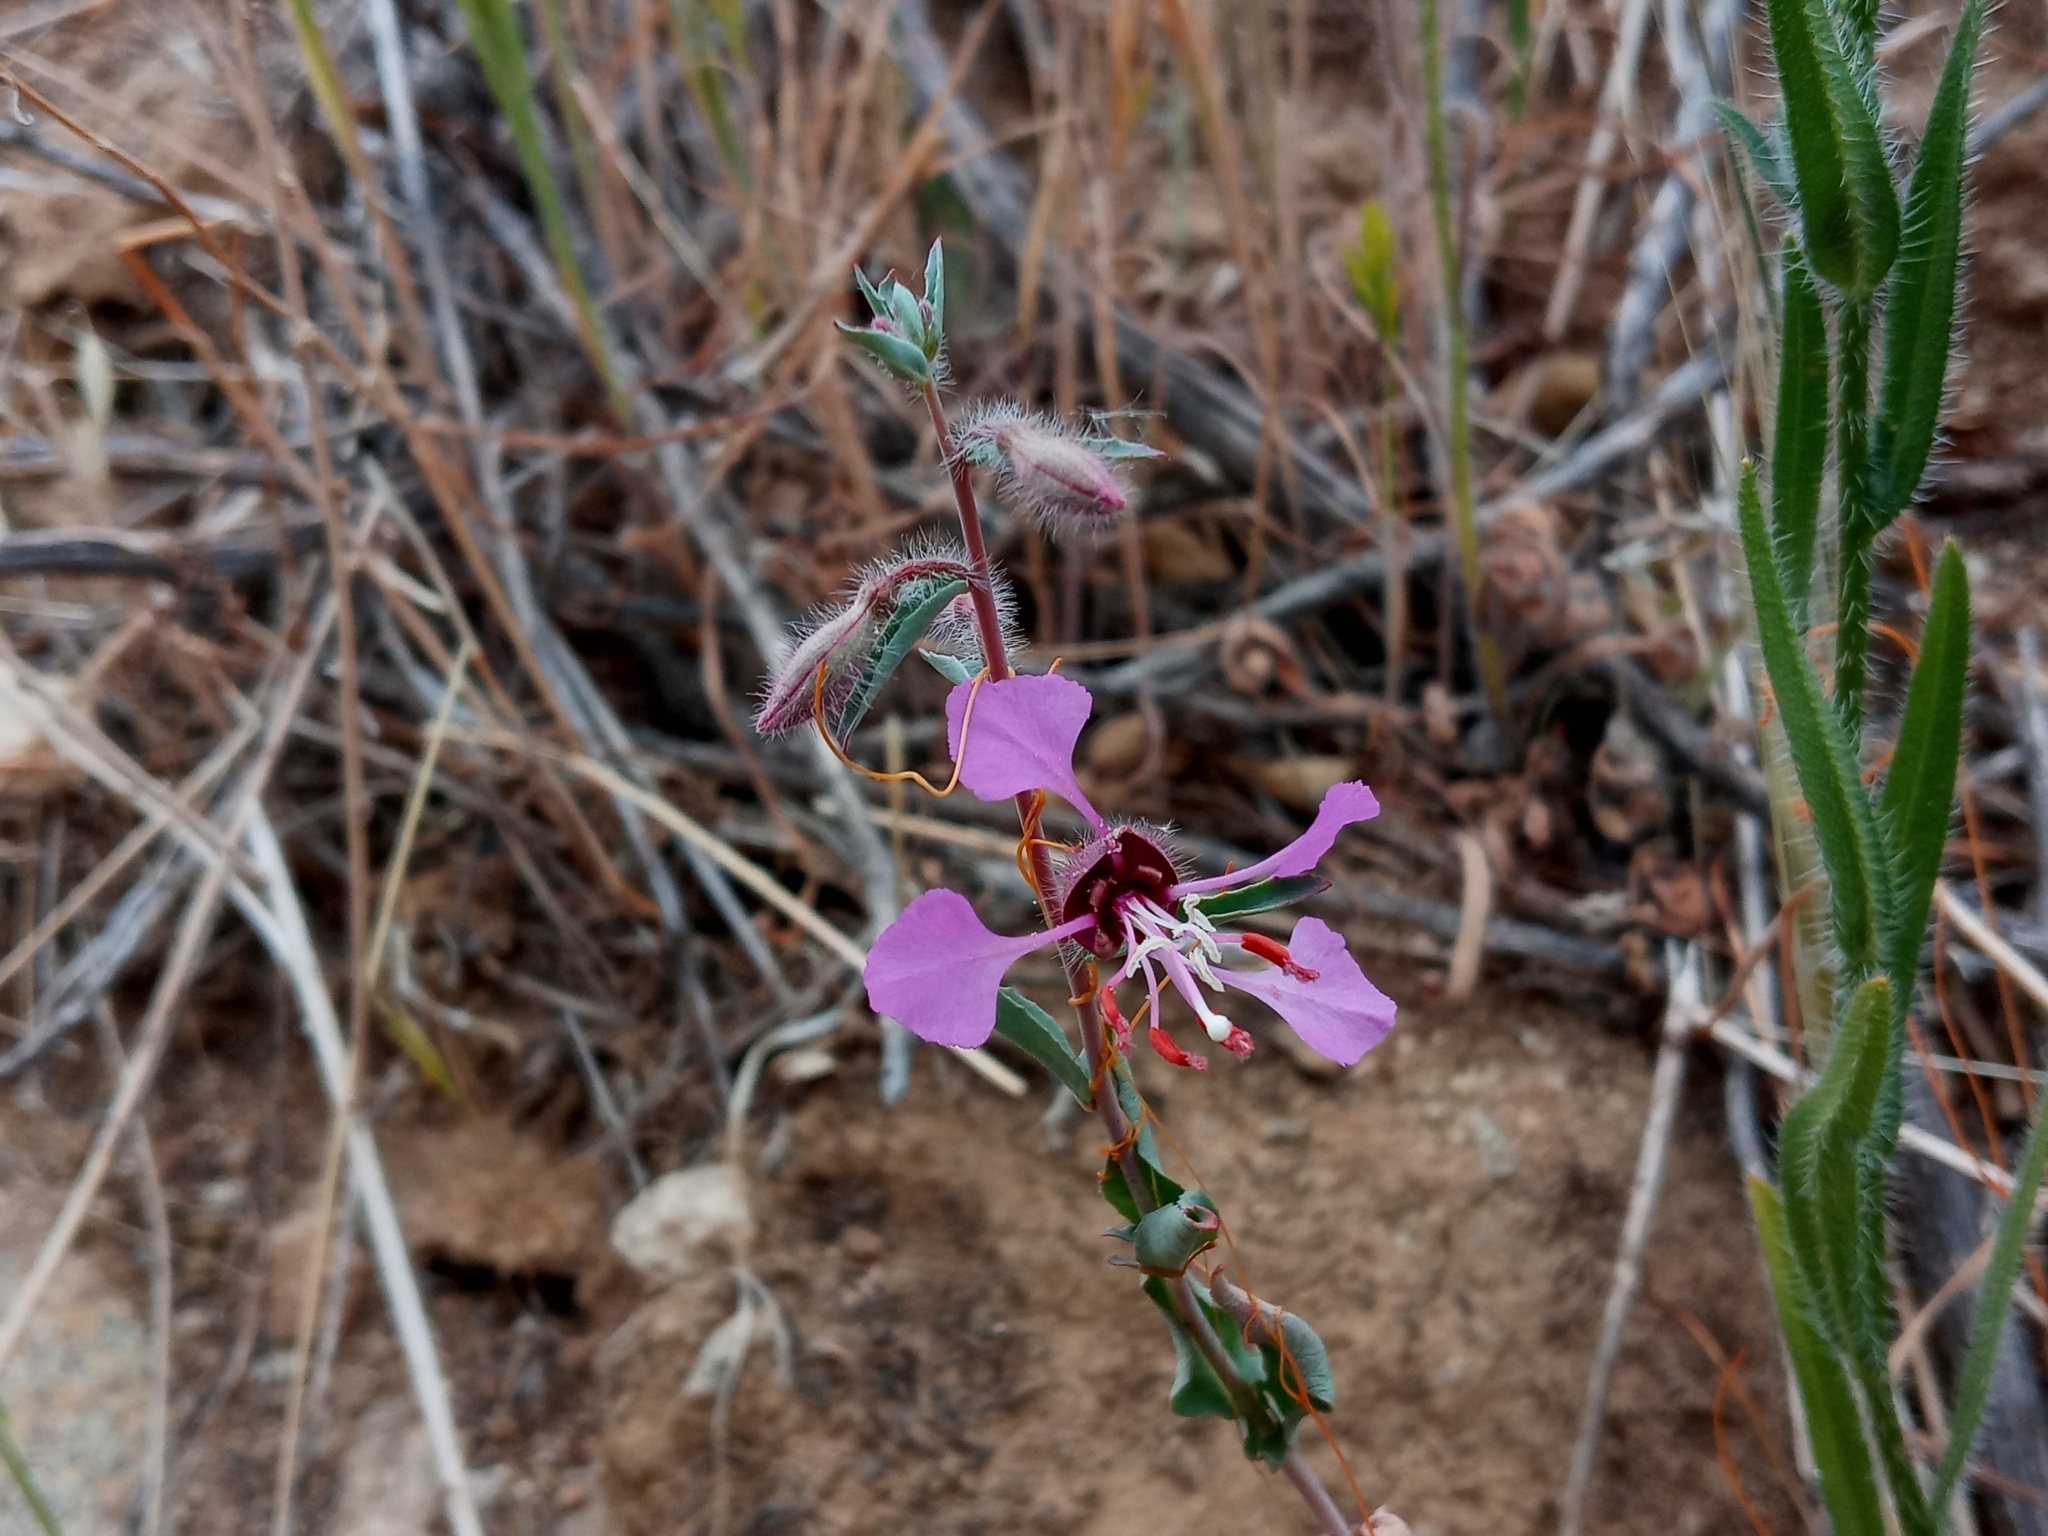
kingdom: Plantae
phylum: Tracheophyta
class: Magnoliopsida
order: Myrtales
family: Onagraceae
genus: Clarkia
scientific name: Clarkia unguiculata
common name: Clarkia
